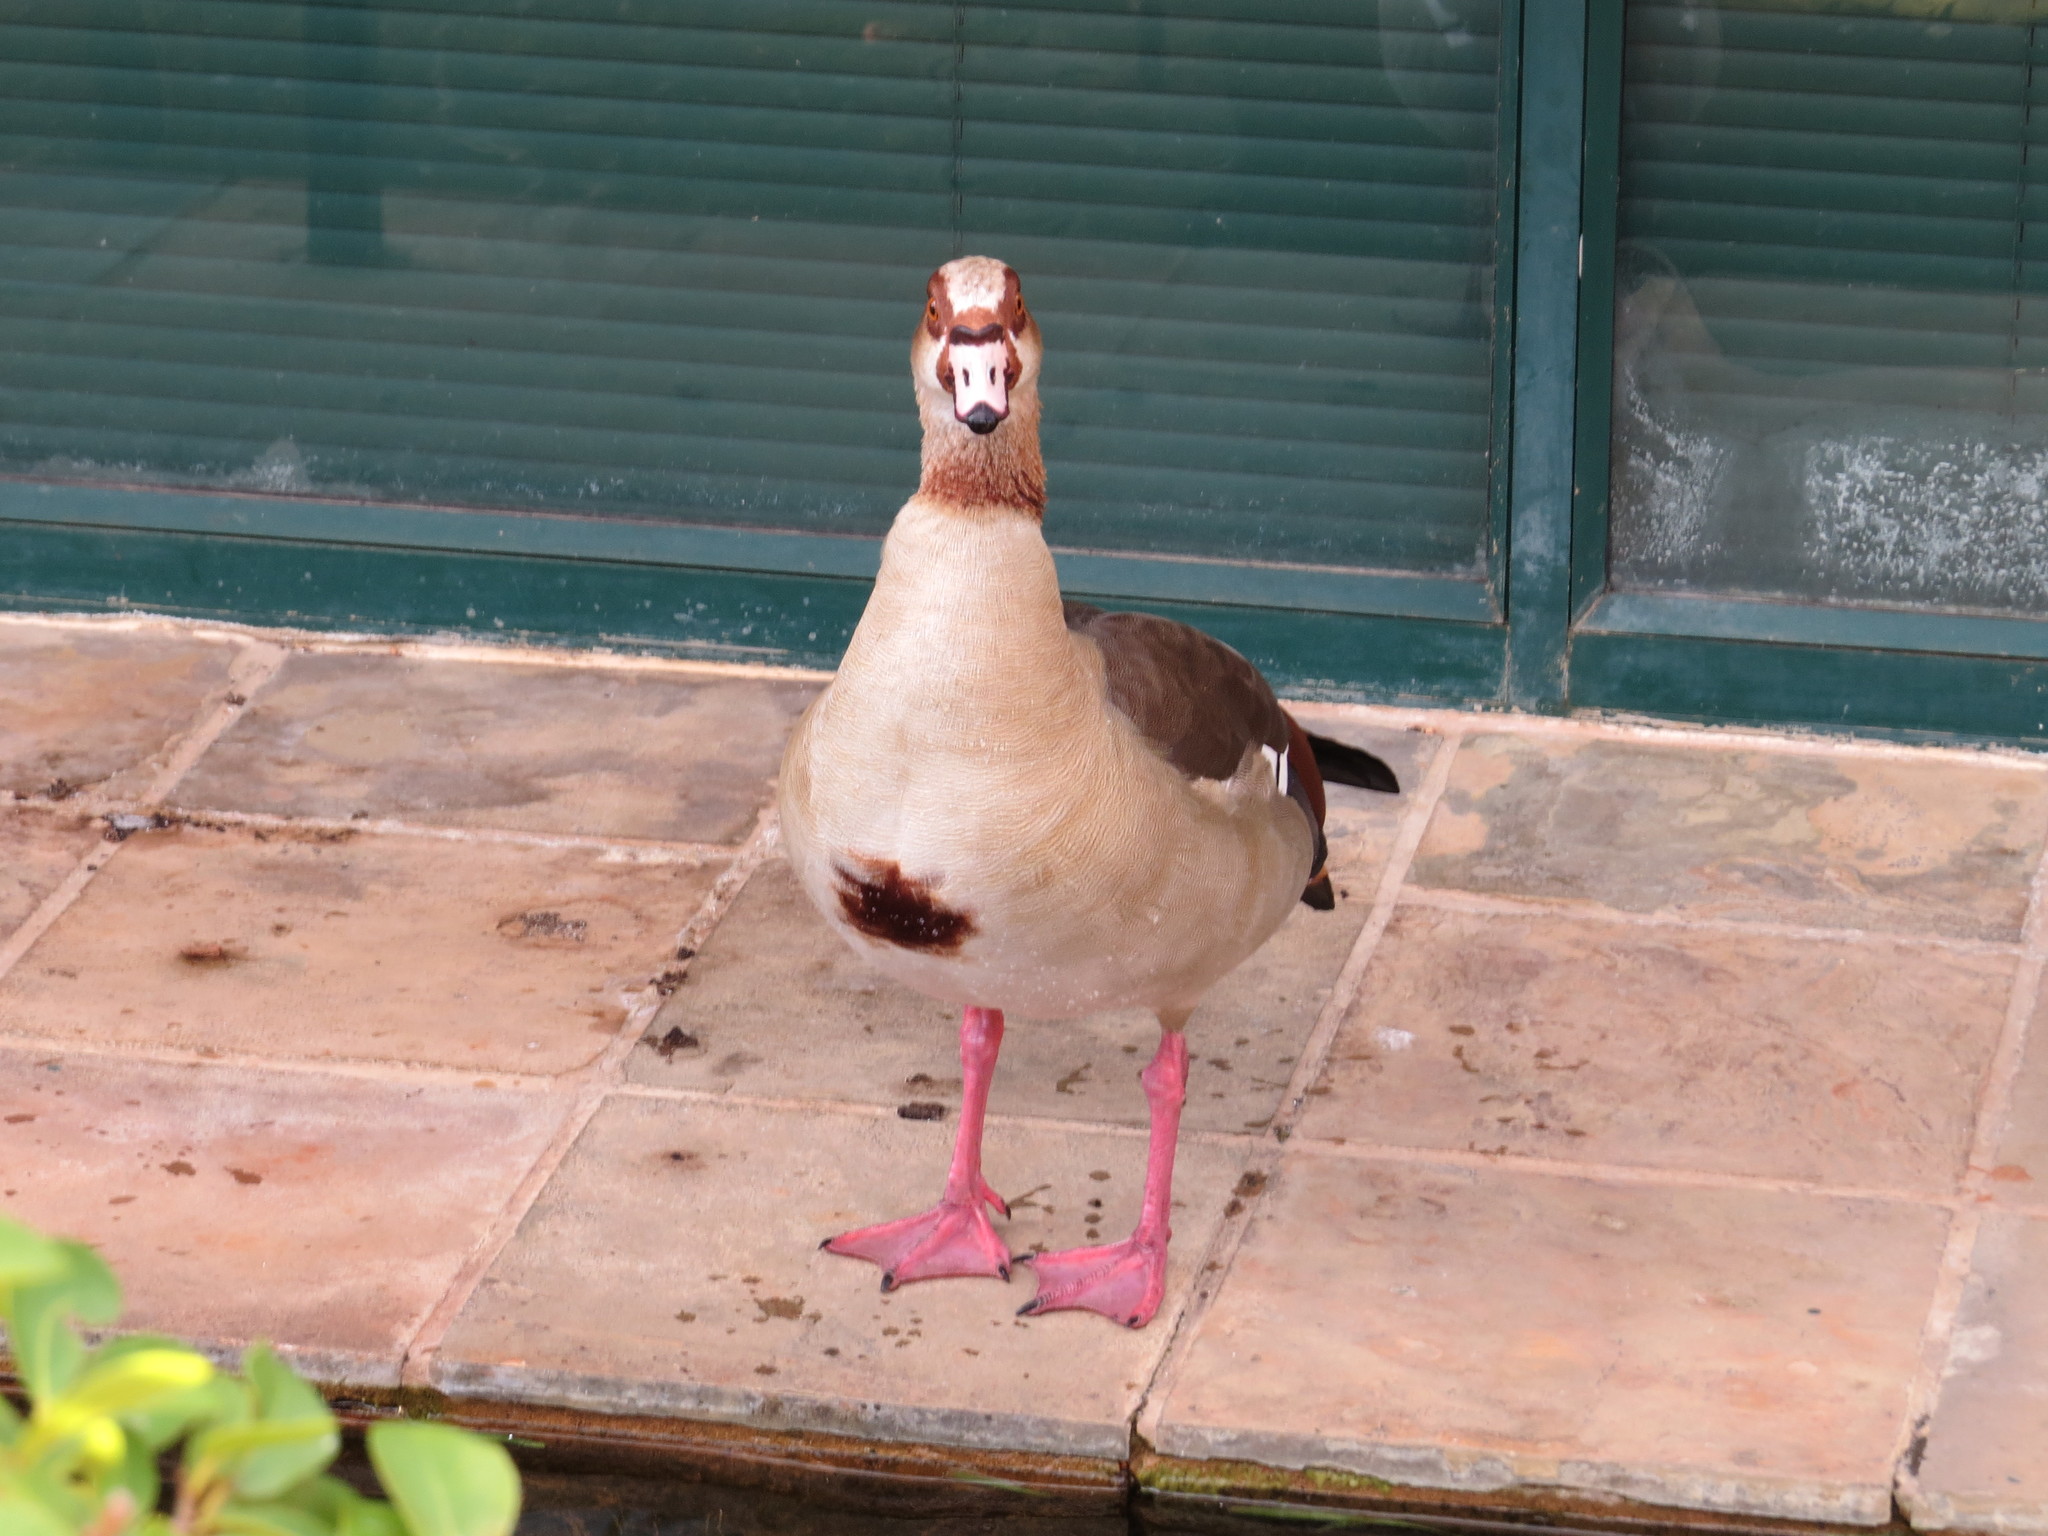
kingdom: Animalia
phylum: Chordata
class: Aves
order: Anseriformes
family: Anatidae
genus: Alopochen
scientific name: Alopochen aegyptiaca
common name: Egyptian goose
